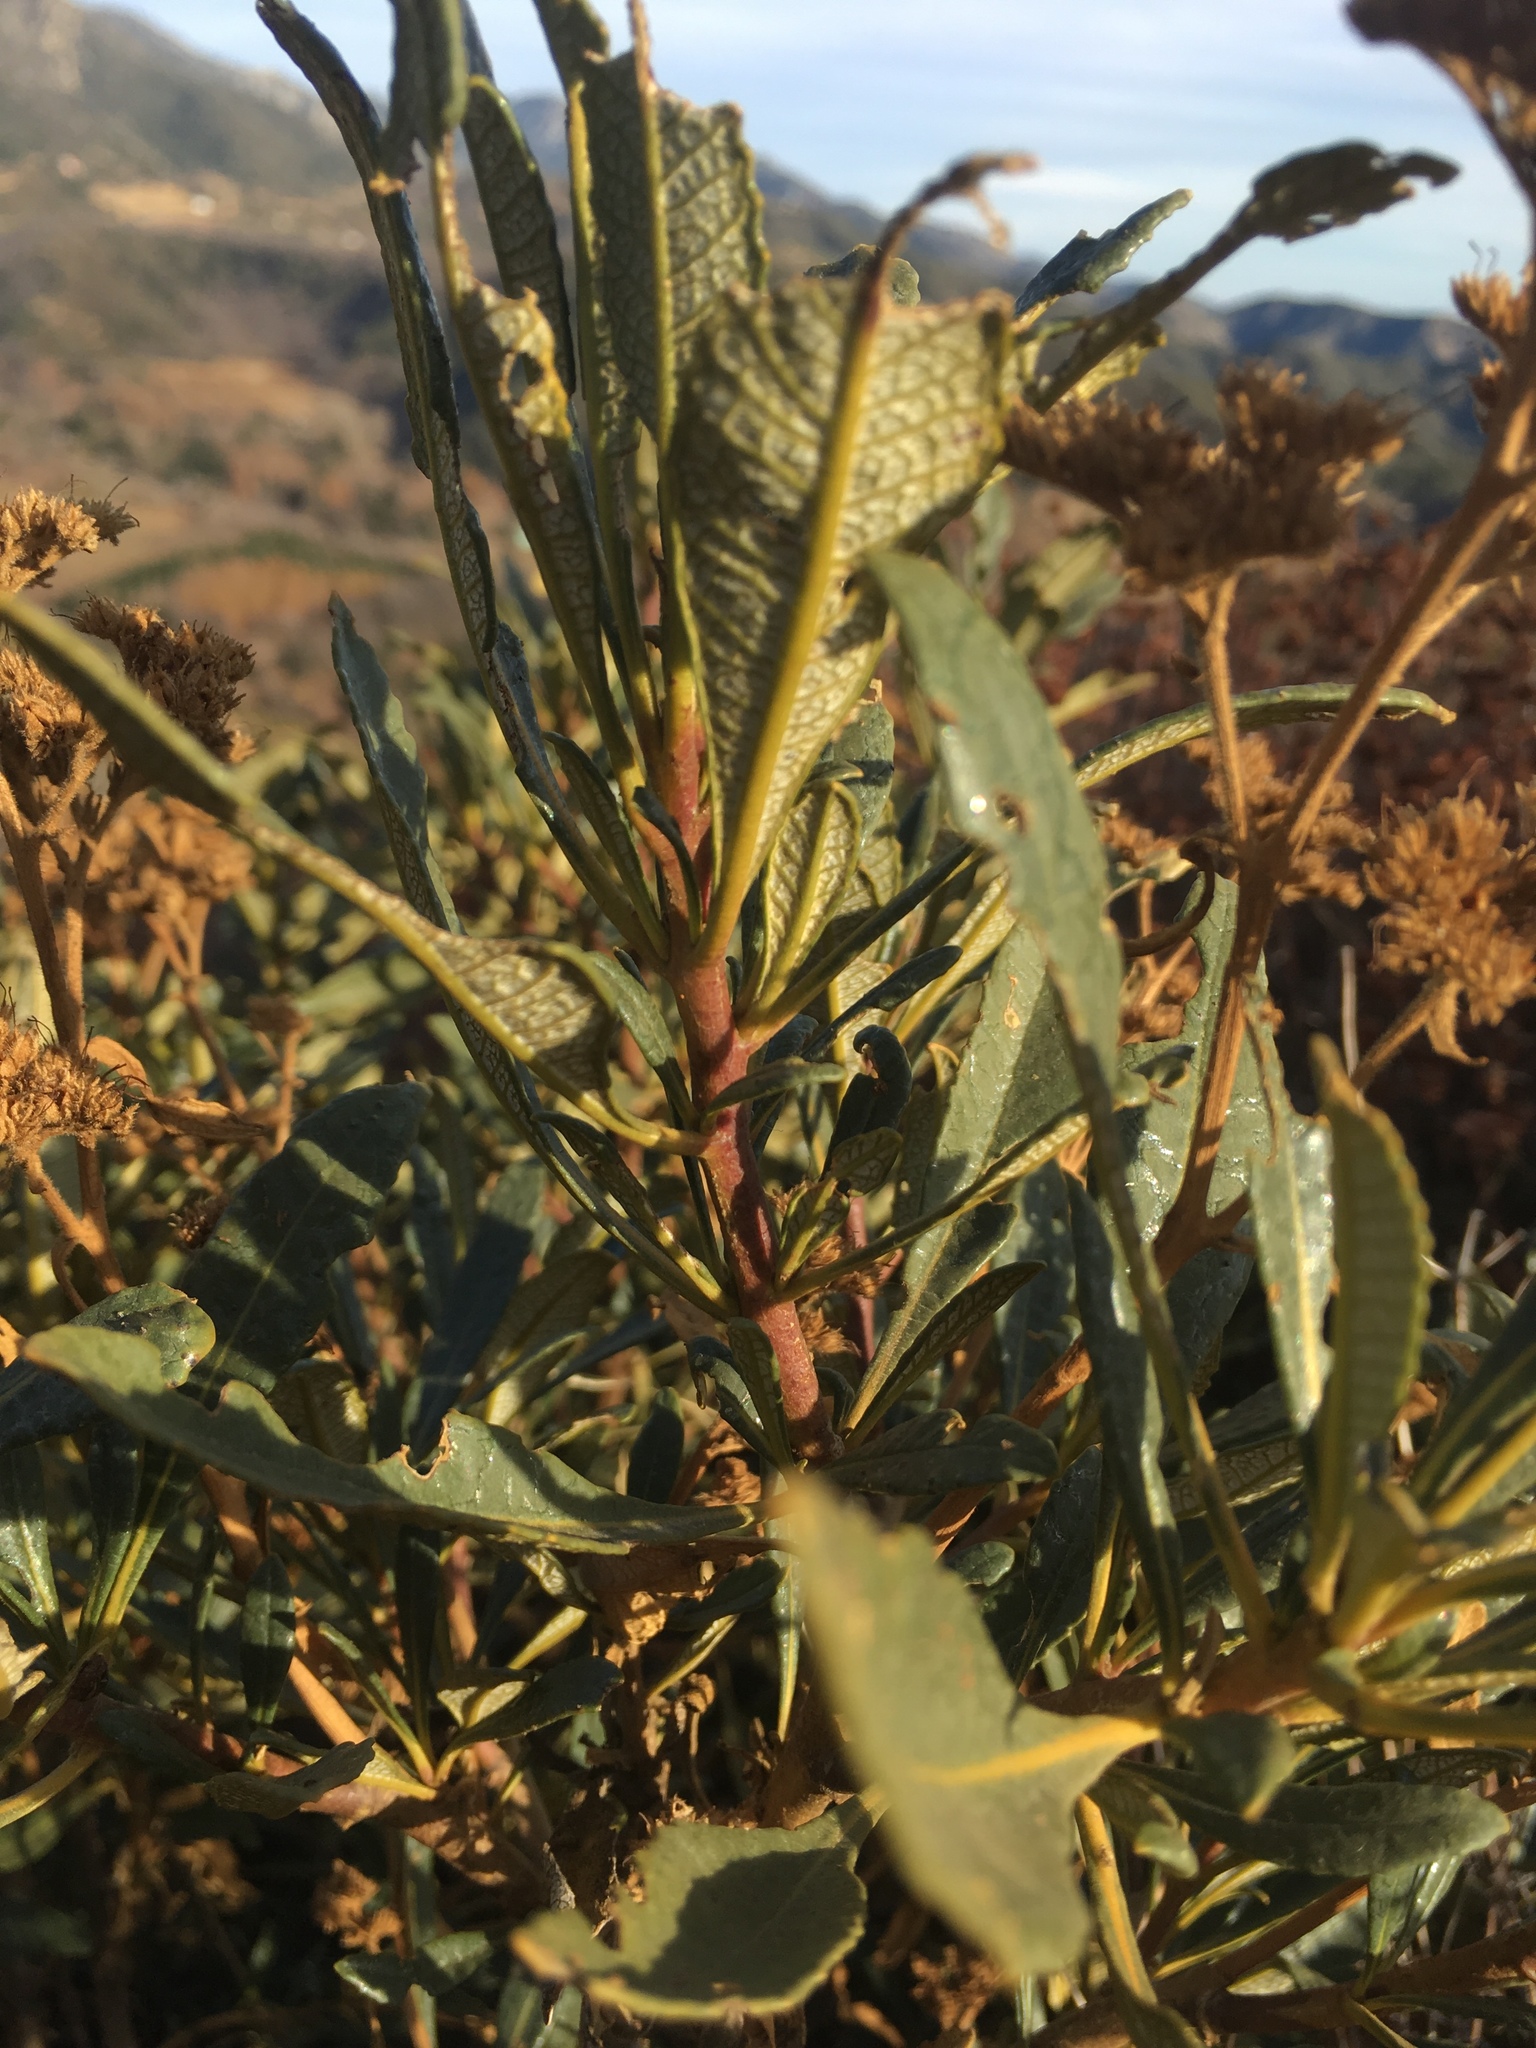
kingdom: Plantae
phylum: Tracheophyta
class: Magnoliopsida
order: Boraginales
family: Namaceae
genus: Eriodictyon
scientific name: Eriodictyon trichocalyx
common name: Hairy yerba-santa
